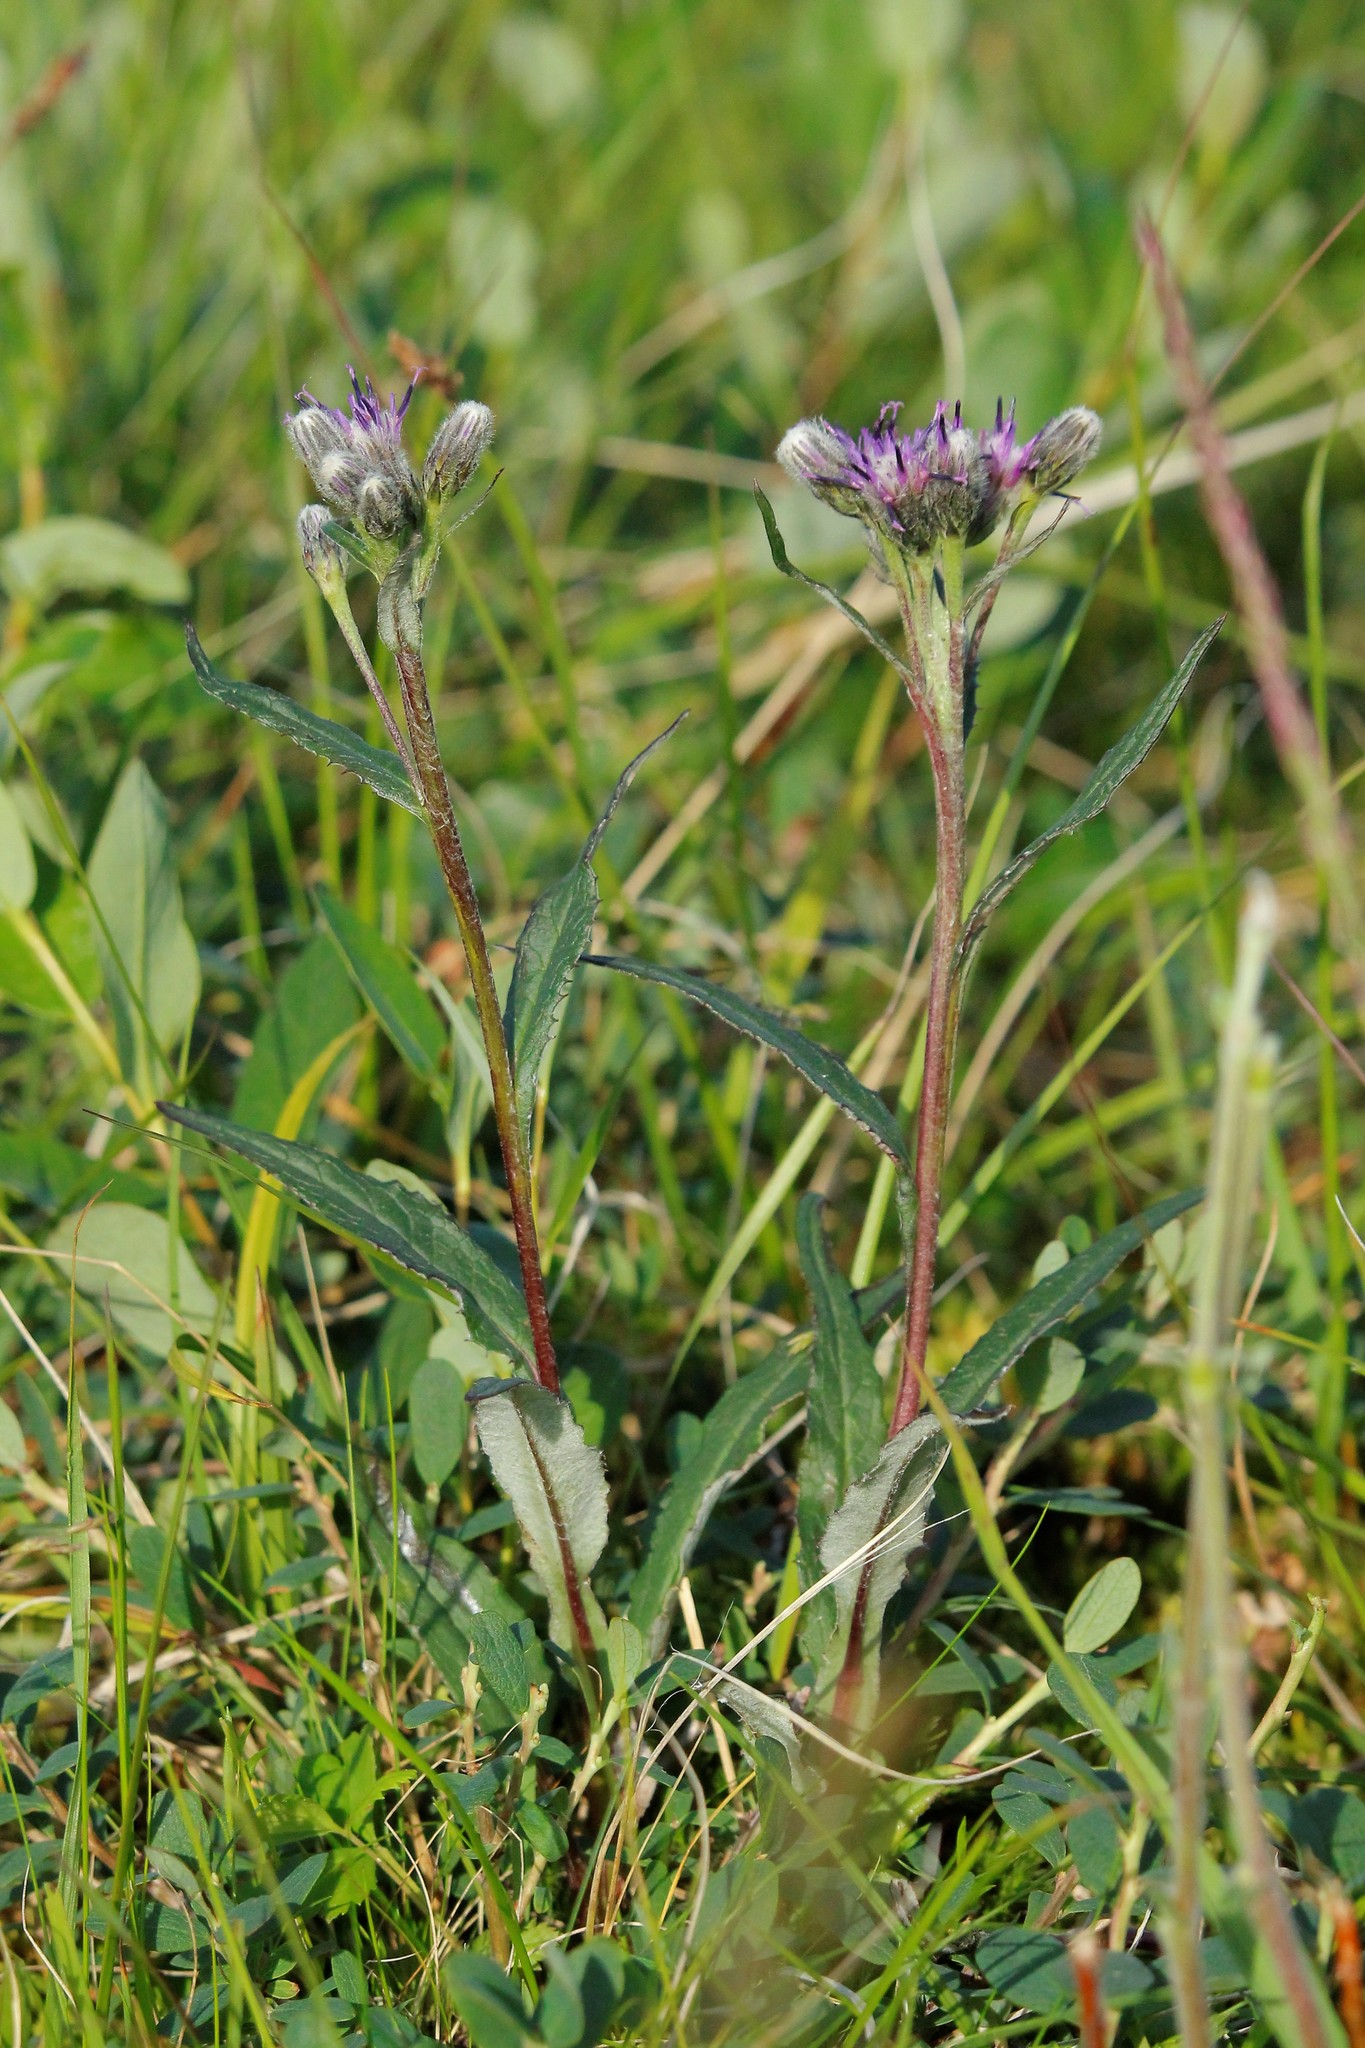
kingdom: Plantae
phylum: Tracheophyta
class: Magnoliopsida
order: Asterales
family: Asteraceae
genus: Saussurea
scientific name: Saussurea alpina
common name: Alpine saw-wort
